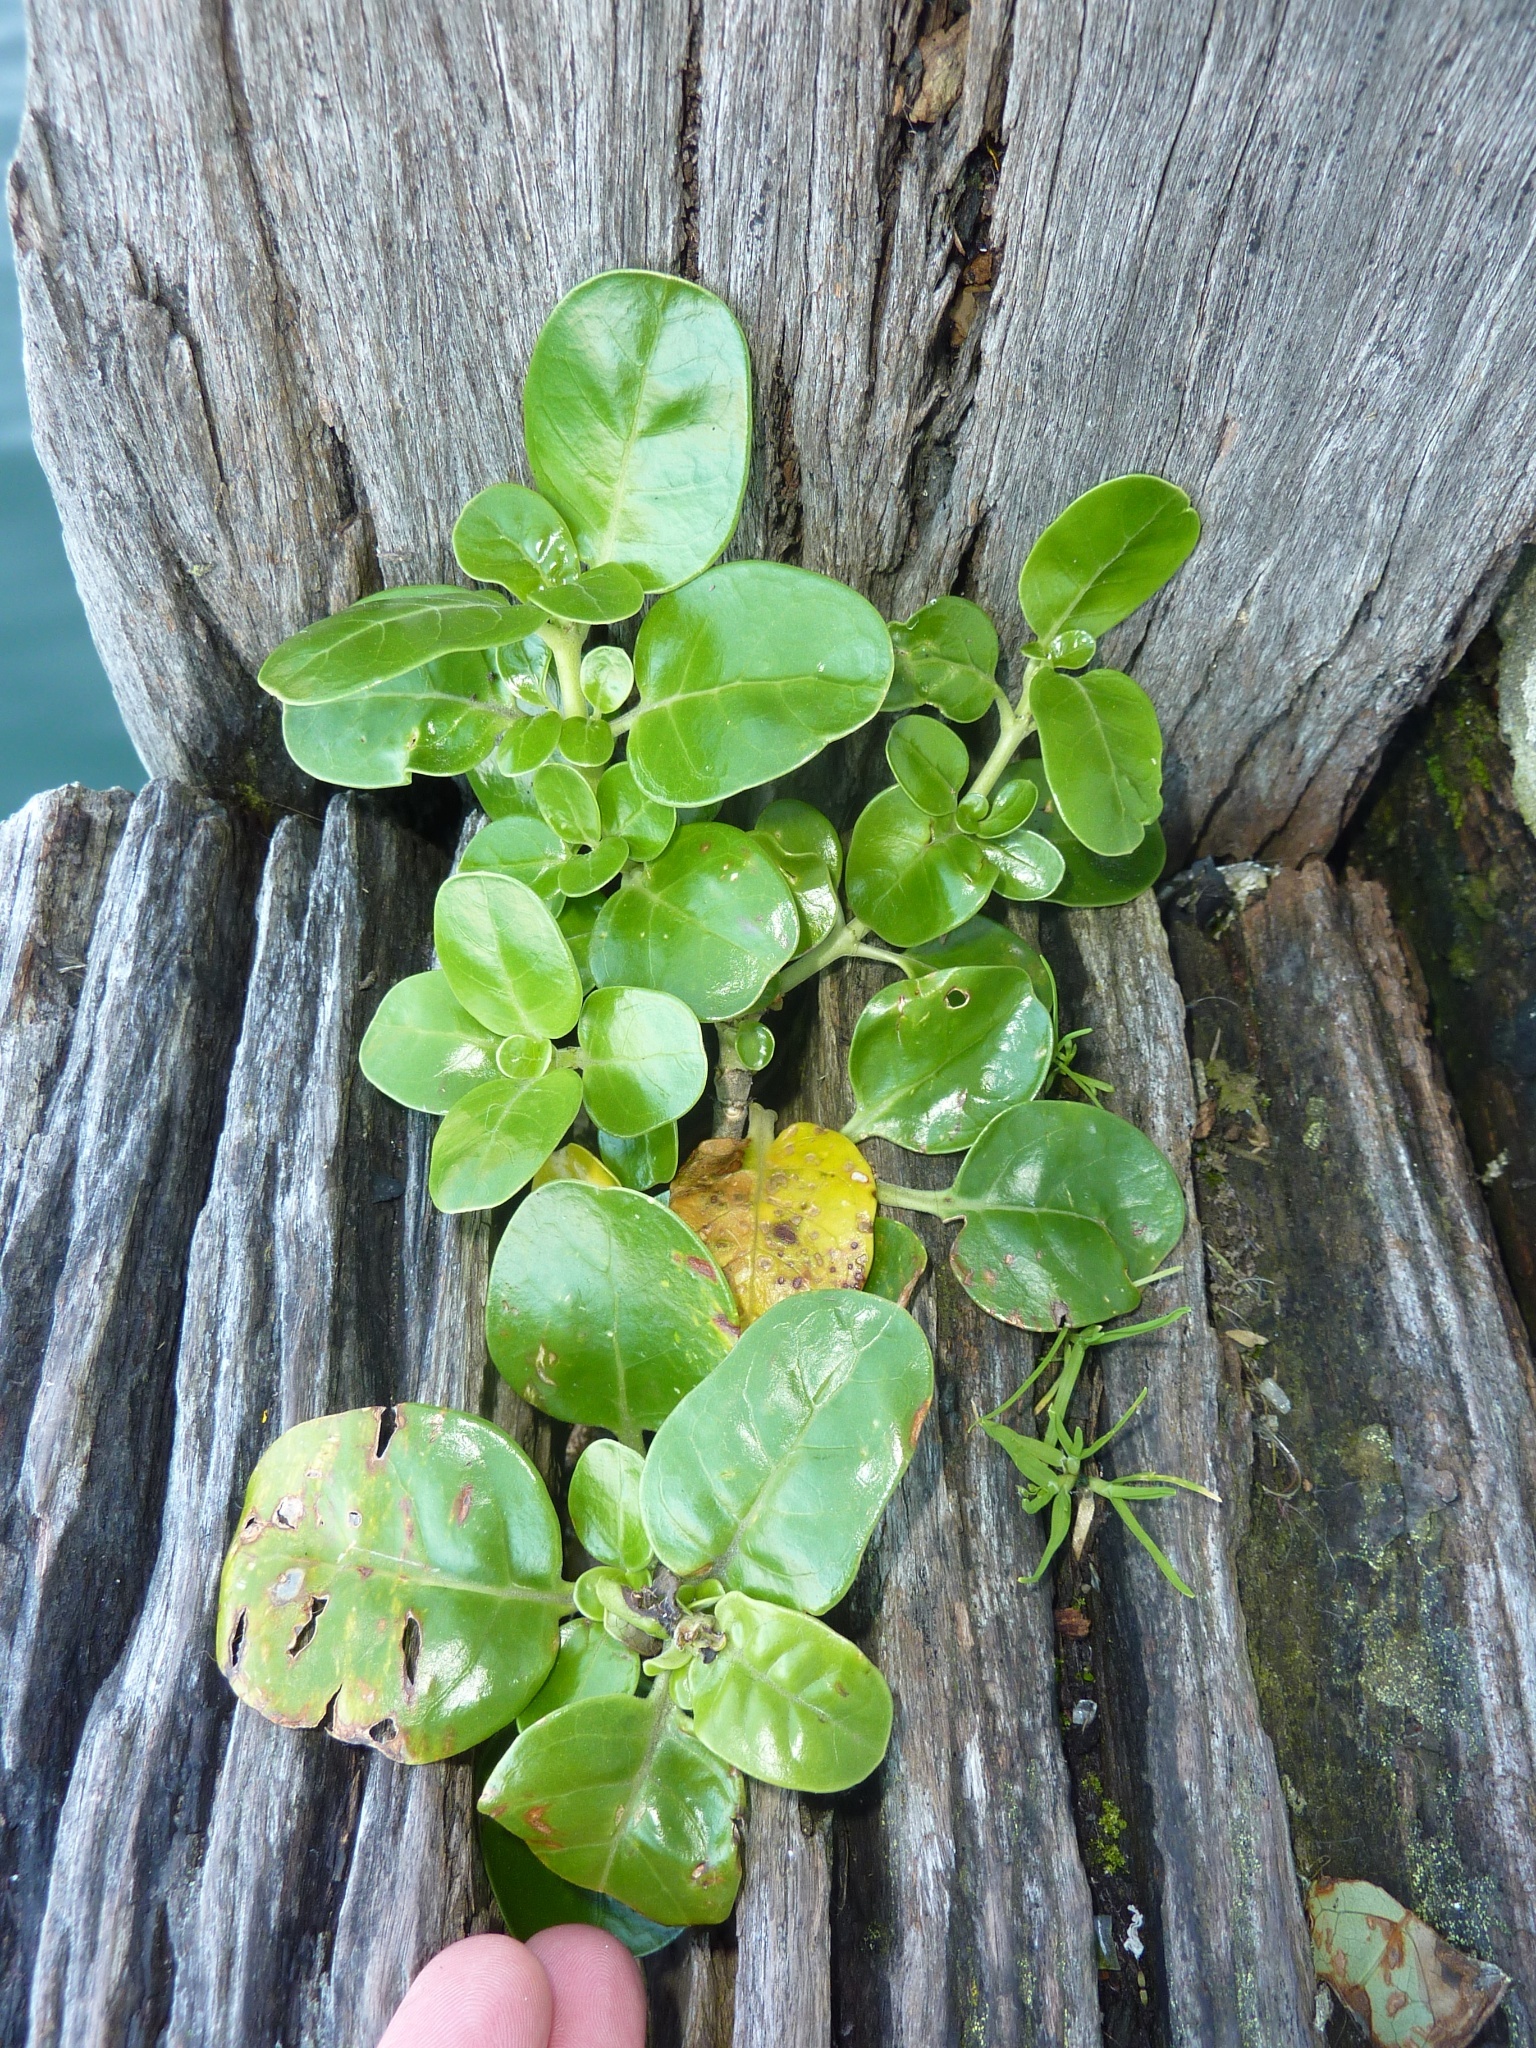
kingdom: Plantae
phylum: Tracheophyta
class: Magnoliopsida
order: Gentianales
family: Rubiaceae
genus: Coprosma
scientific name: Coprosma repens
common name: Tree bedstraw
